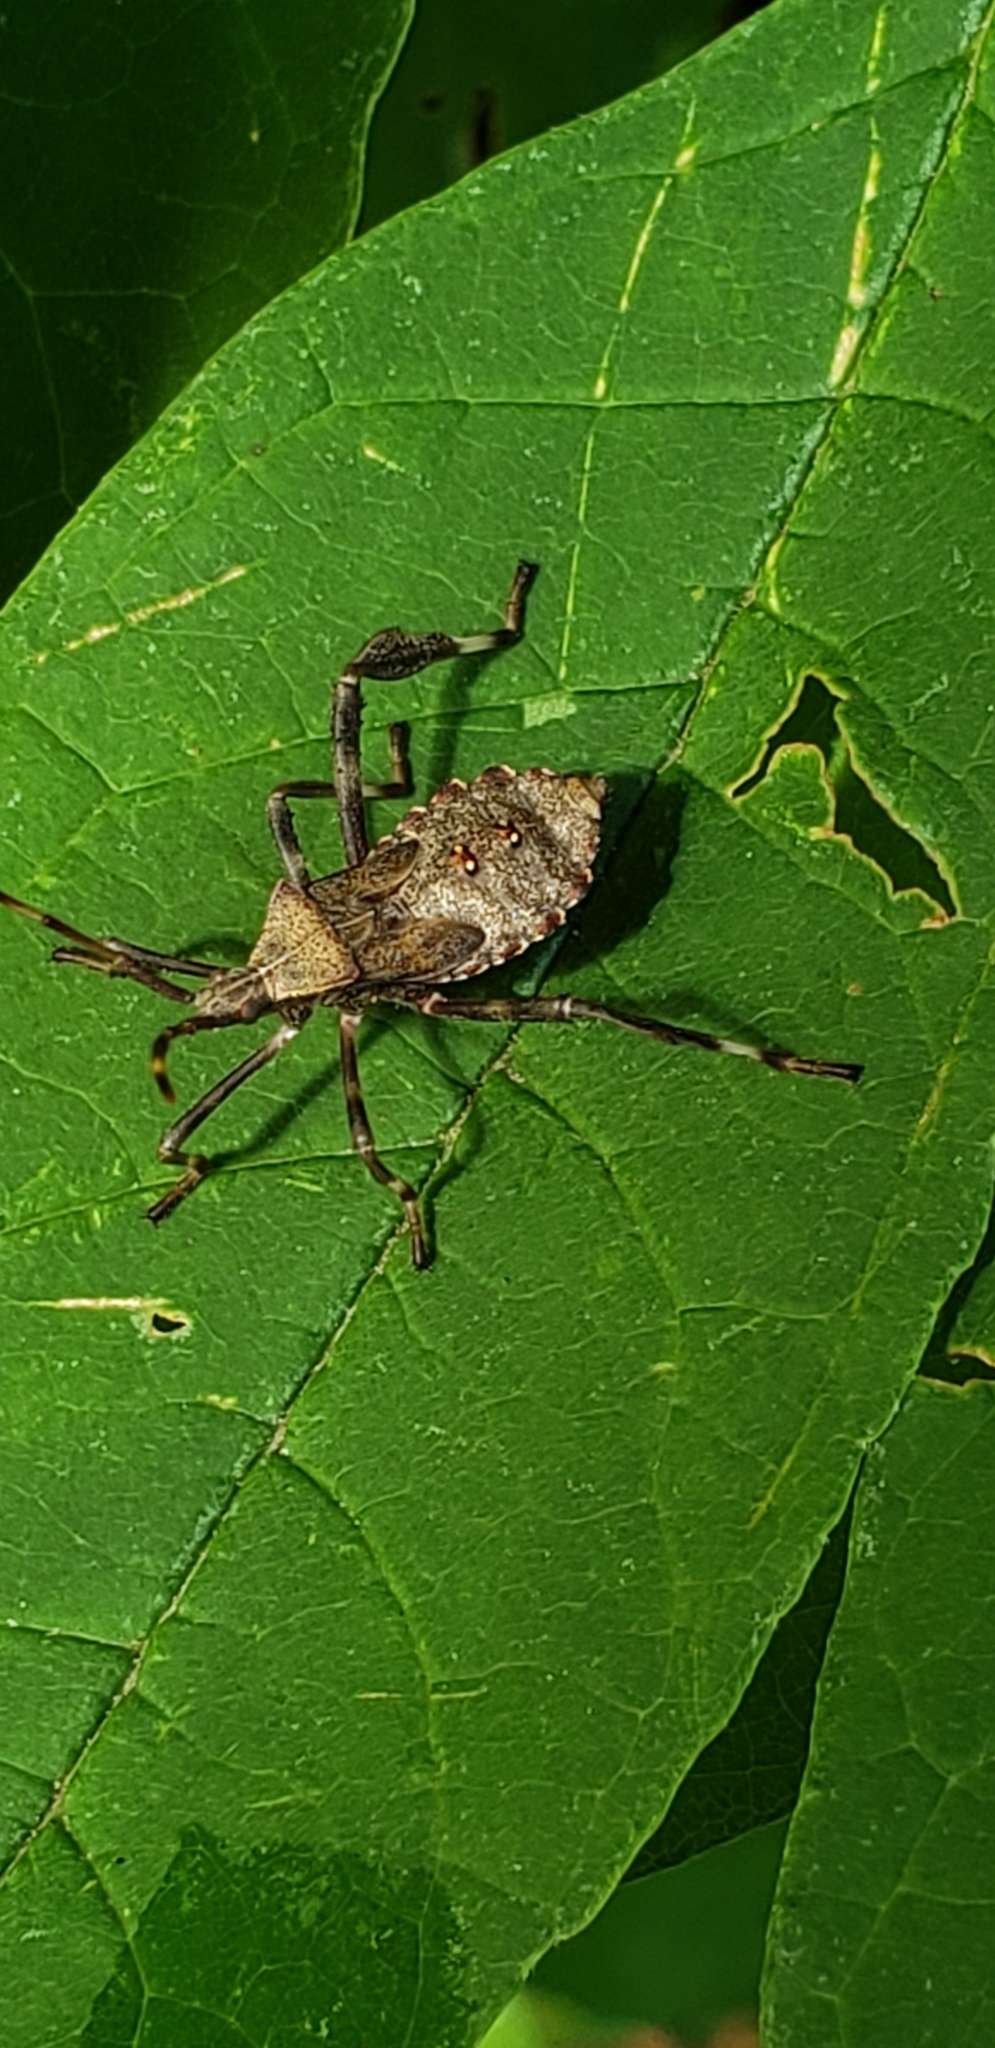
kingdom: Animalia
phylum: Arthropoda
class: Insecta
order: Hemiptera
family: Coreidae
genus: Acanthocephala
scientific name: Acanthocephala terminalis
